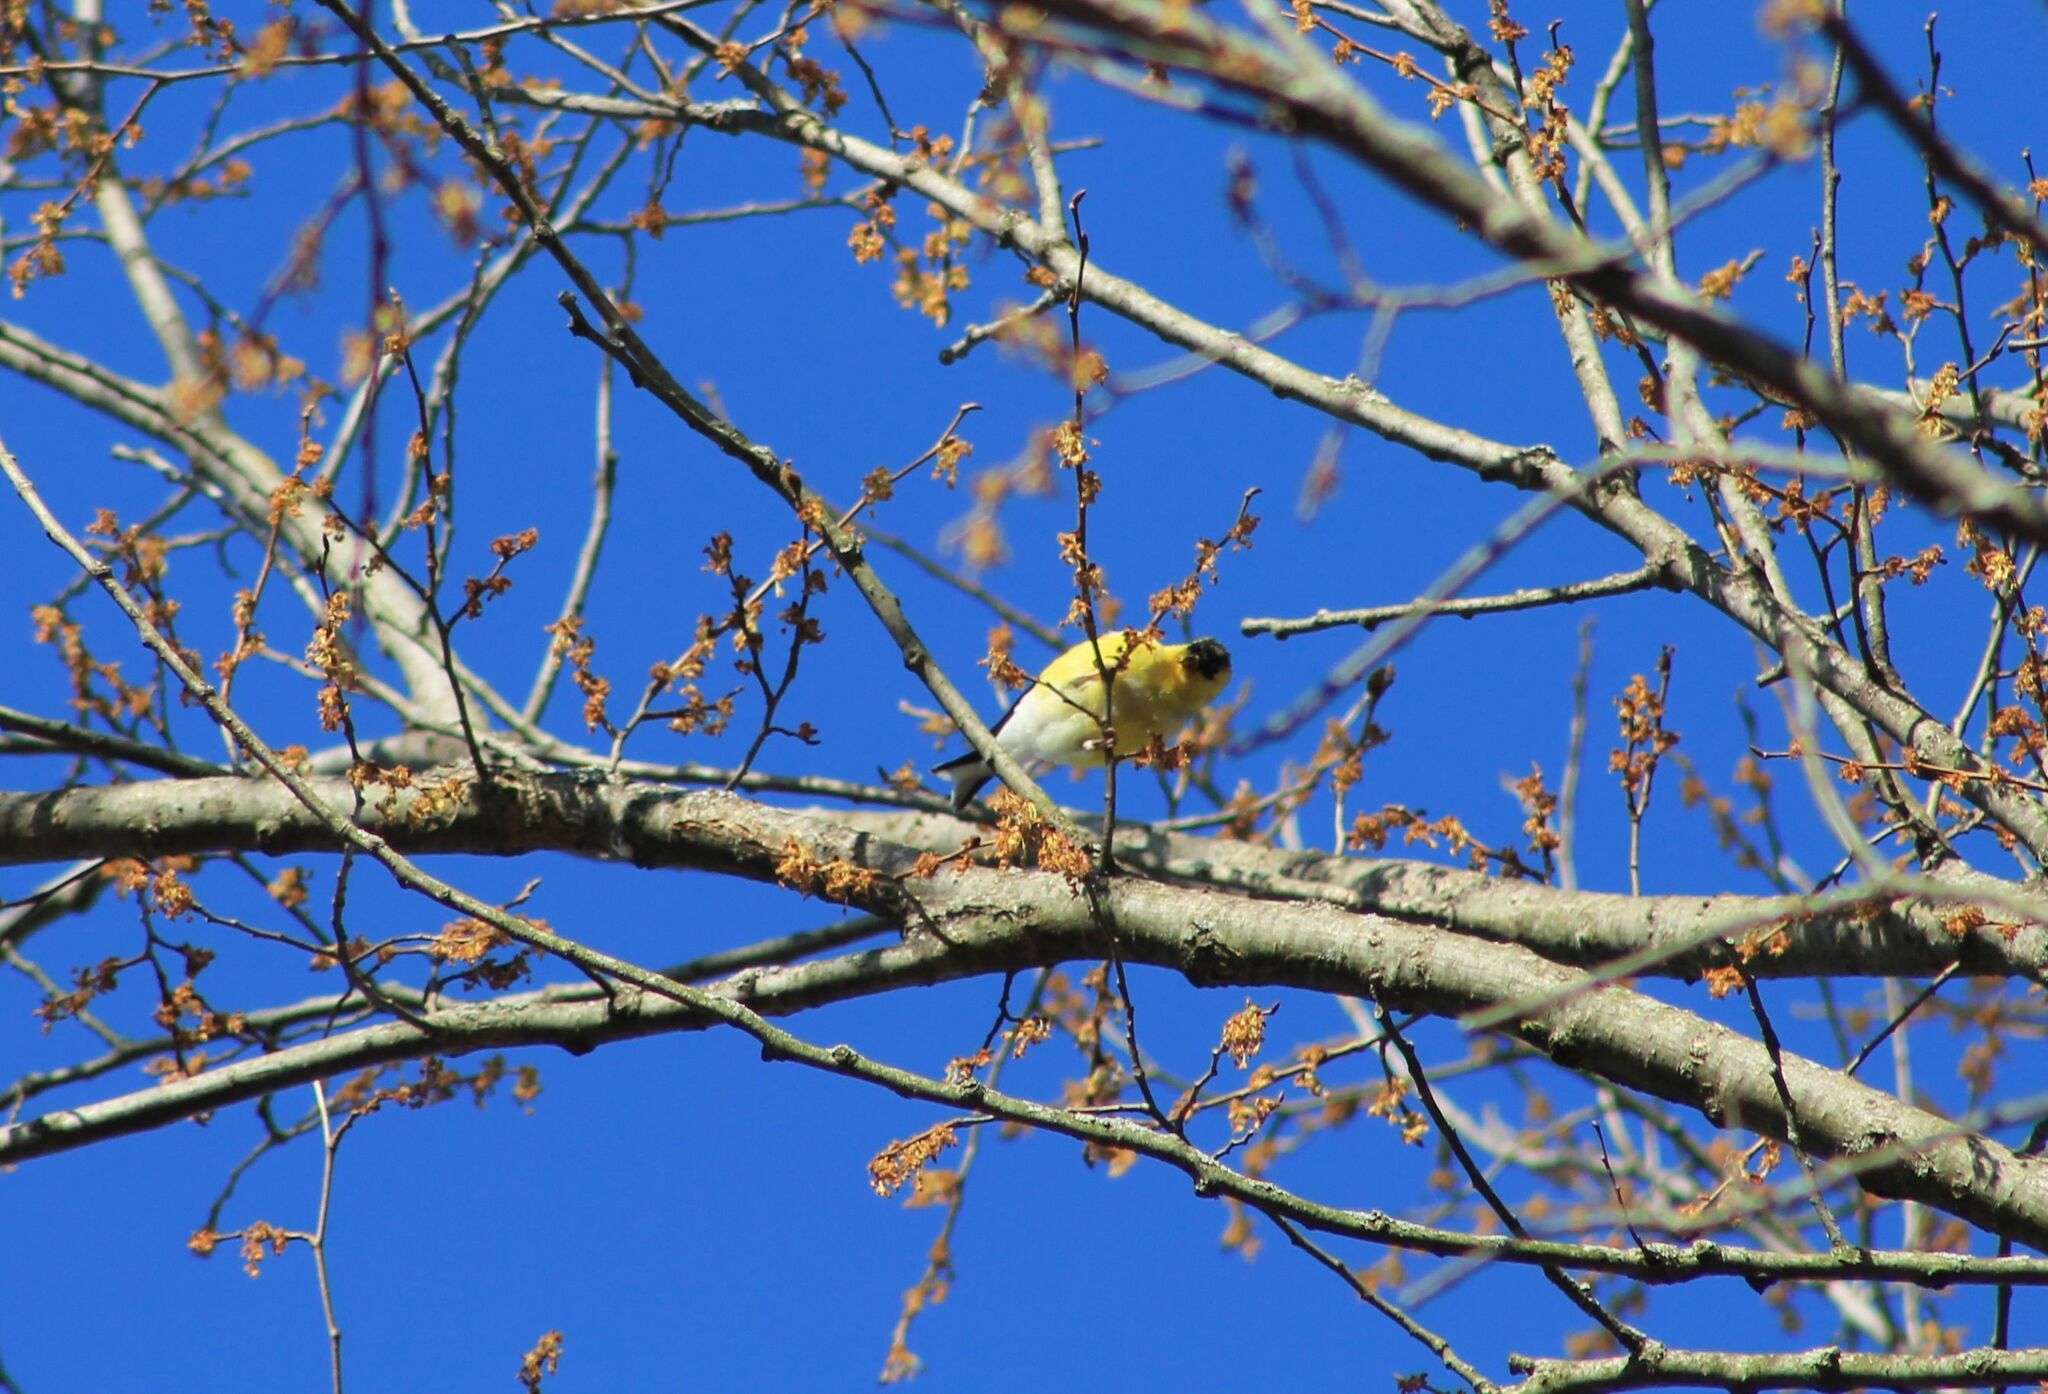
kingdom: Animalia
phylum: Chordata
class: Aves
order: Passeriformes
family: Fringillidae
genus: Spinus
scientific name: Spinus tristis
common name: American goldfinch
